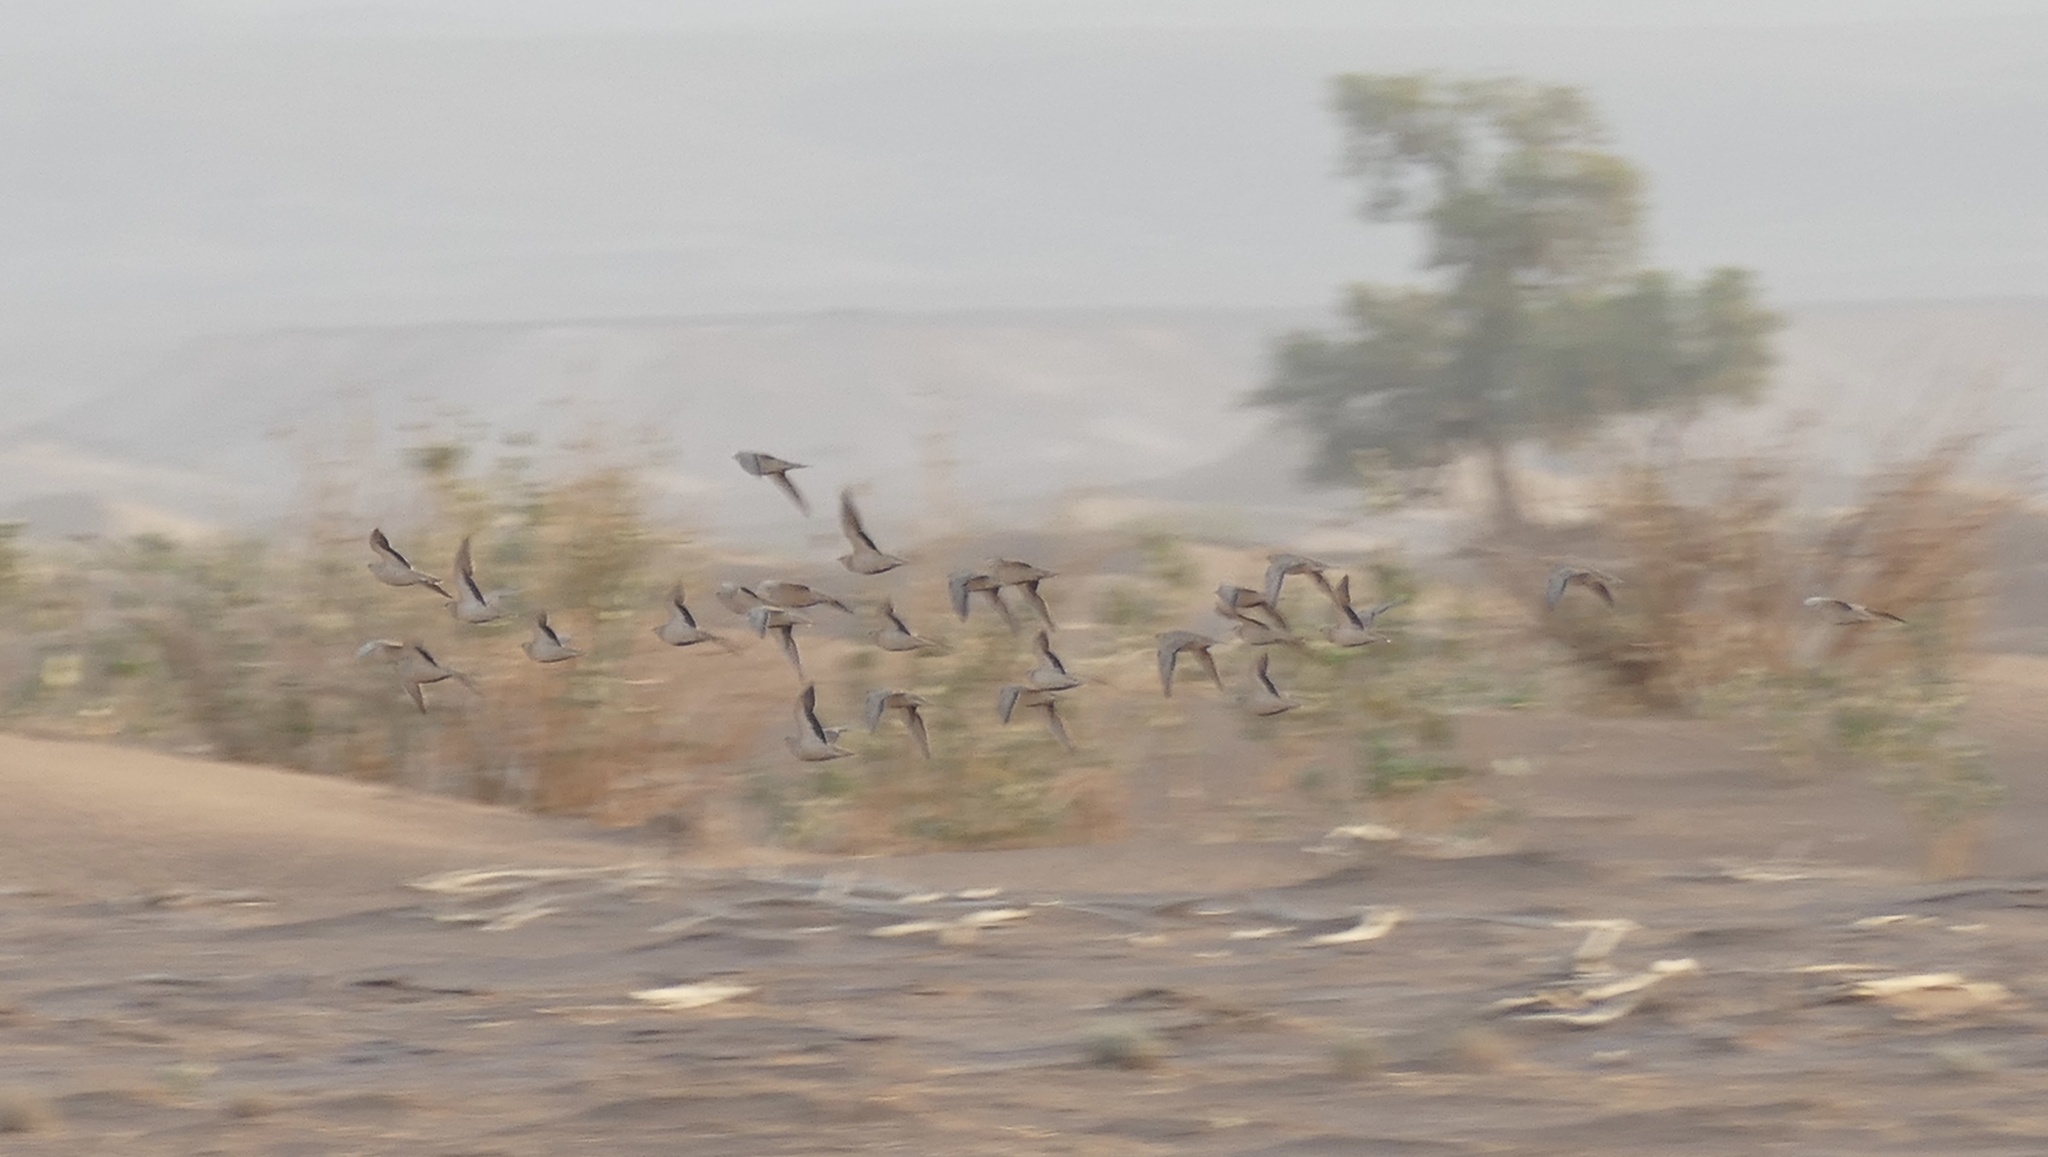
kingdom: Animalia
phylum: Chordata
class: Aves
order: Pteroclidiformes
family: Pteroclididae
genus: Pterocles
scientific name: Pterocles senegallus
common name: Spotted sandgrouse
